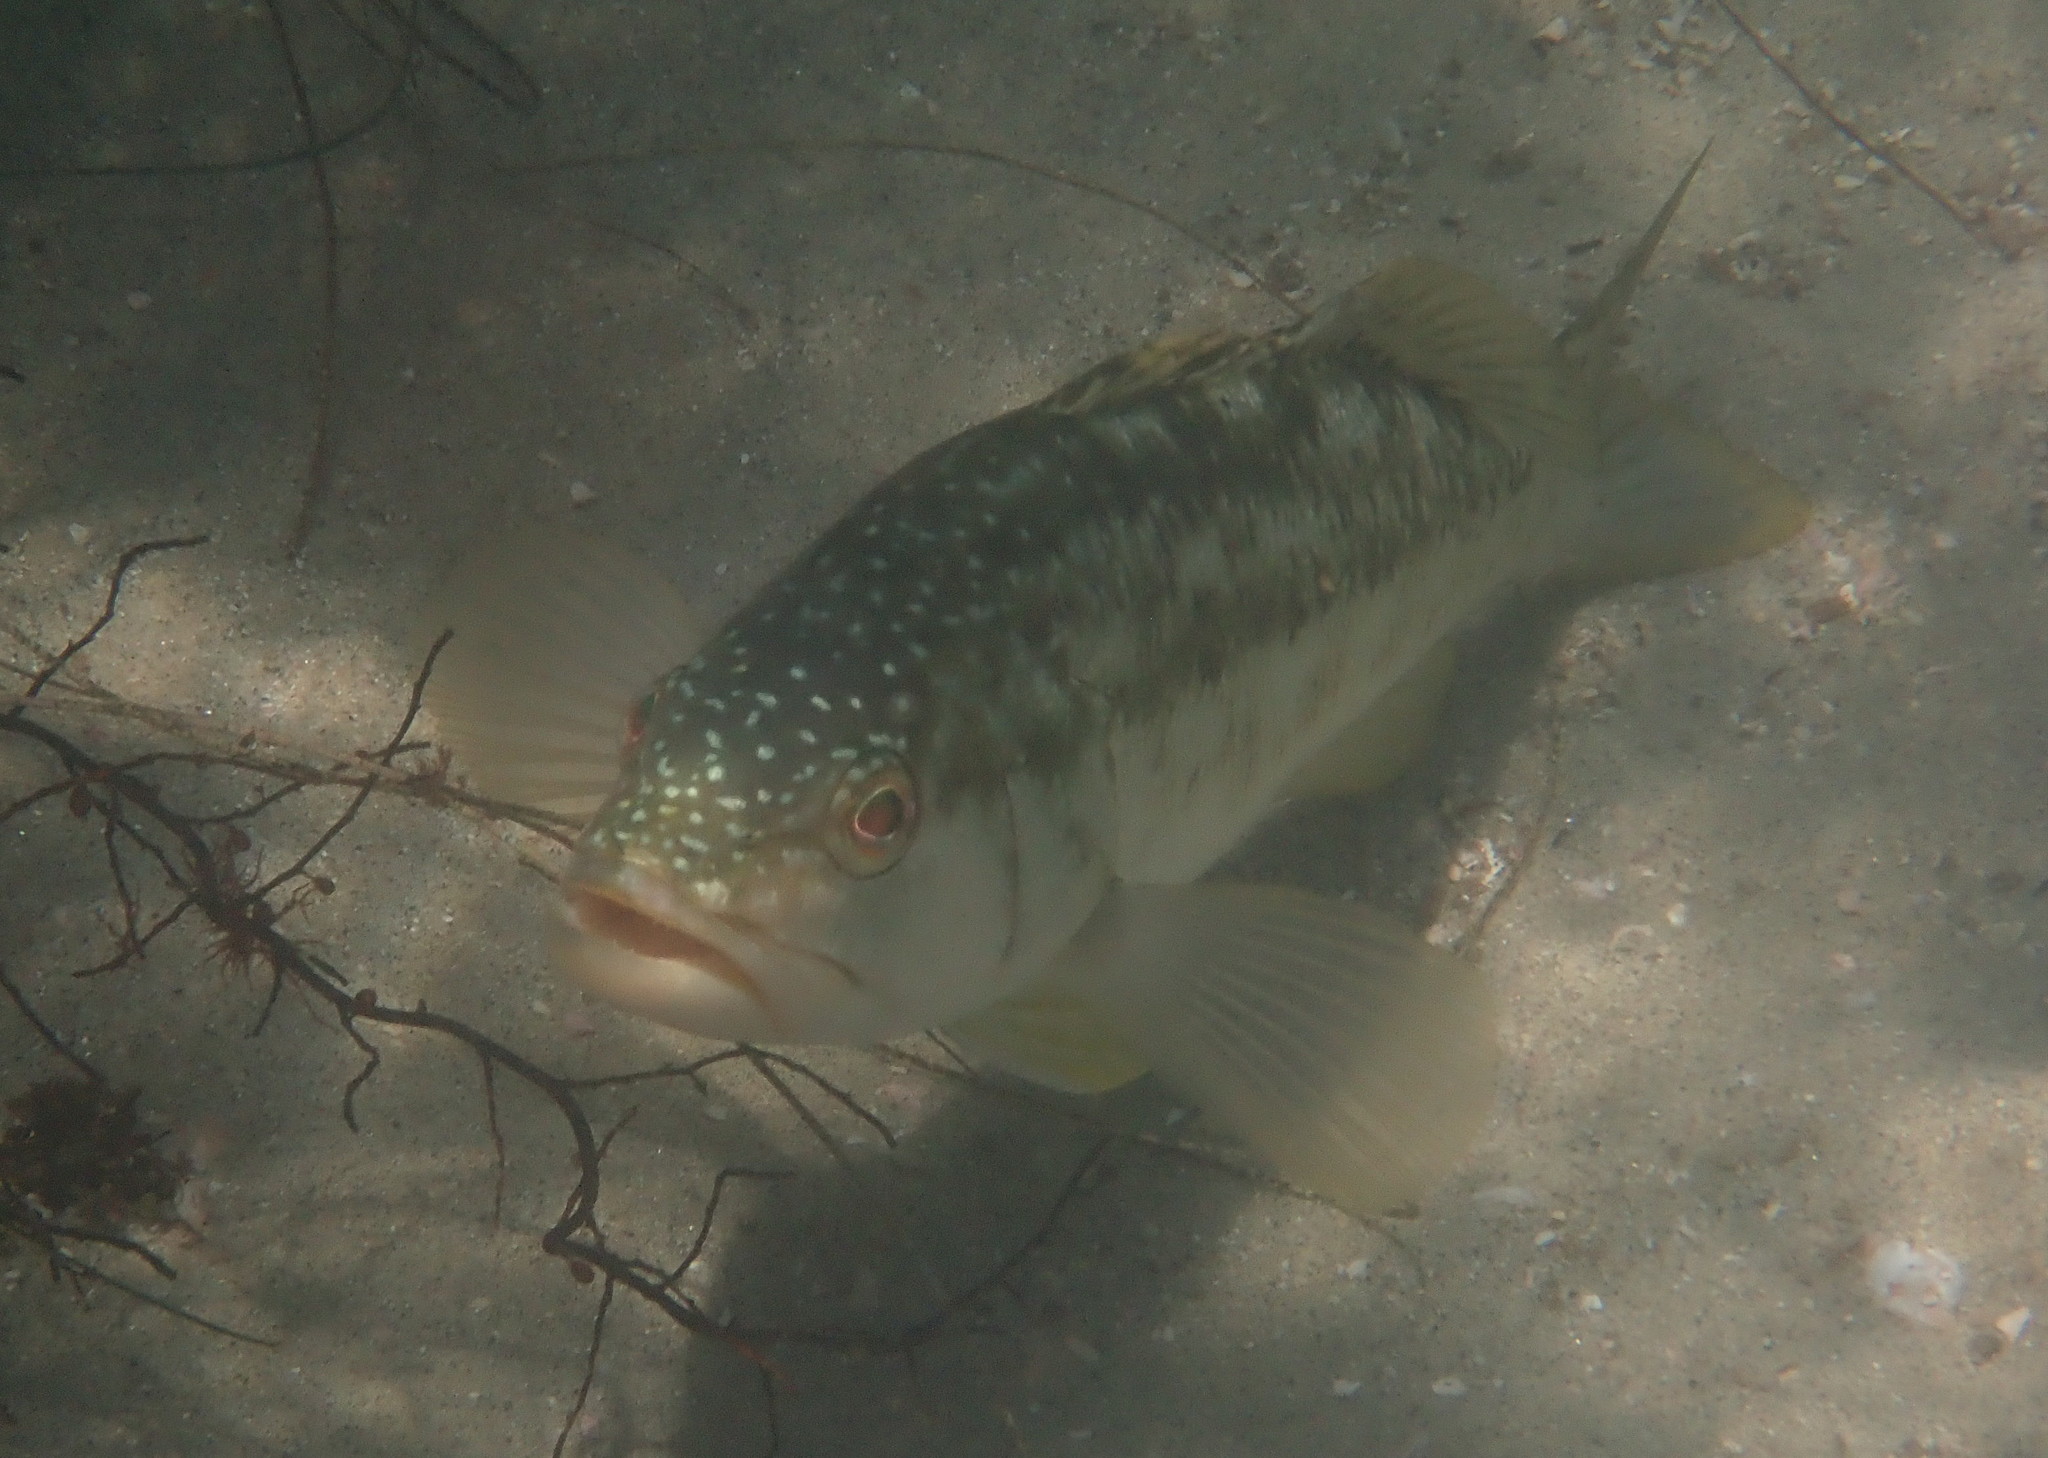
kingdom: Animalia
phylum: Chordata
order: Perciformes
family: Serranidae
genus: Paralabrax
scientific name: Paralabrax clathratus
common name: Kelp bass
